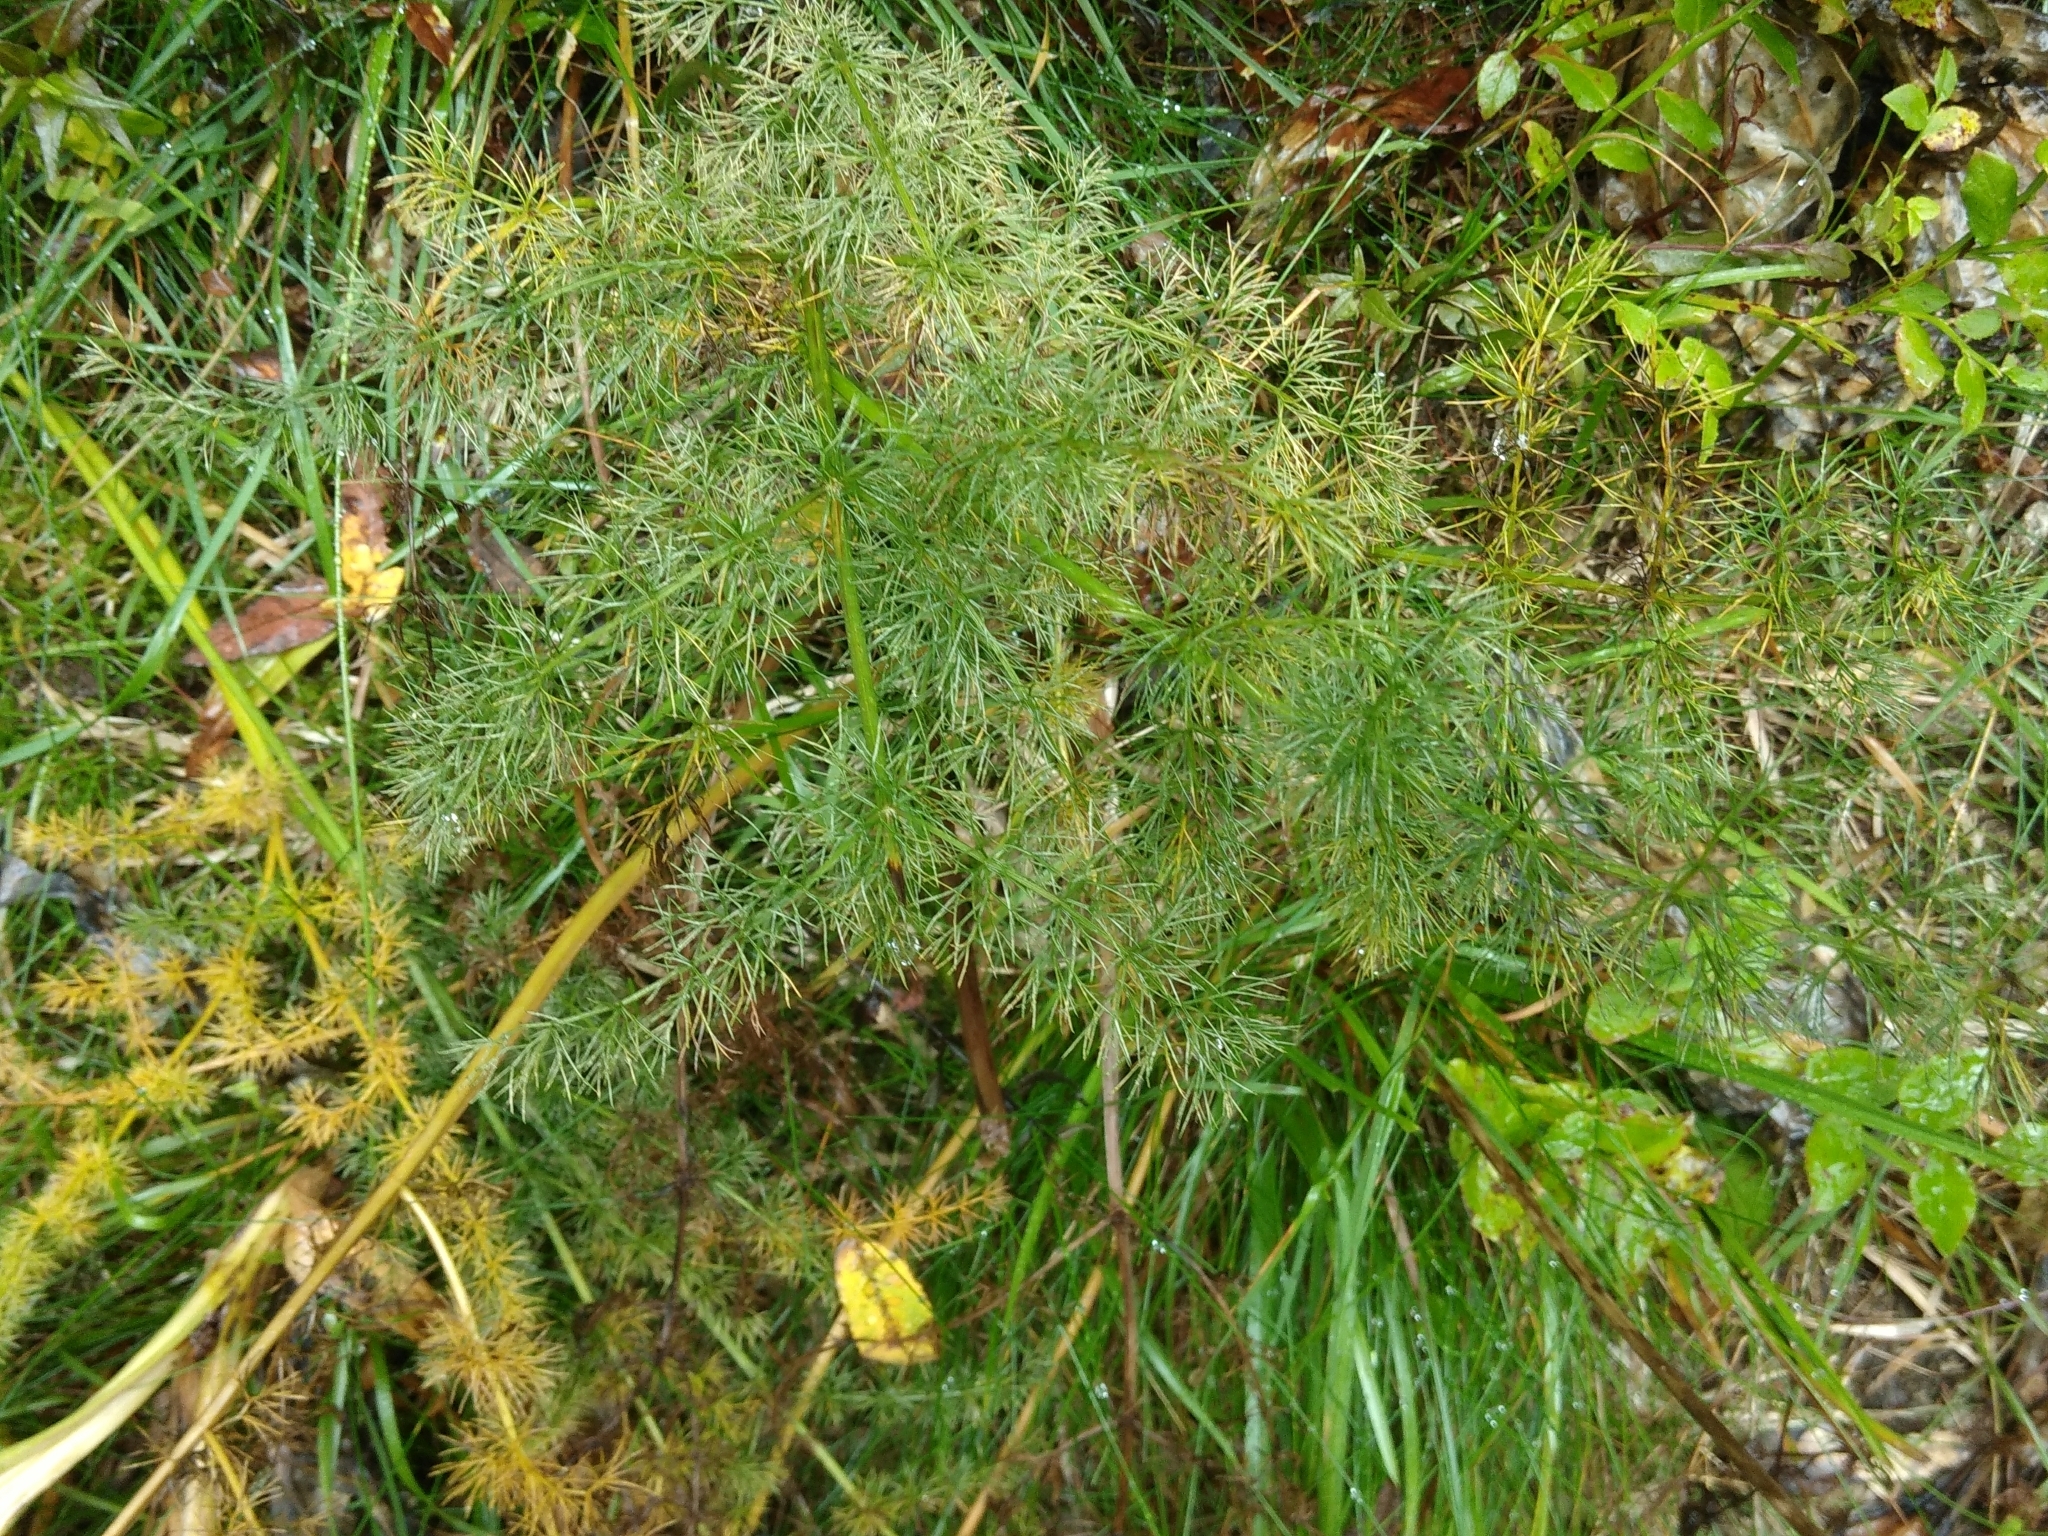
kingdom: Plantae
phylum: Tracheophyta
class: Magnoliopsida
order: Apiales
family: Apiaceae
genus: Meum
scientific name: Meum athamanticum
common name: Spignel
